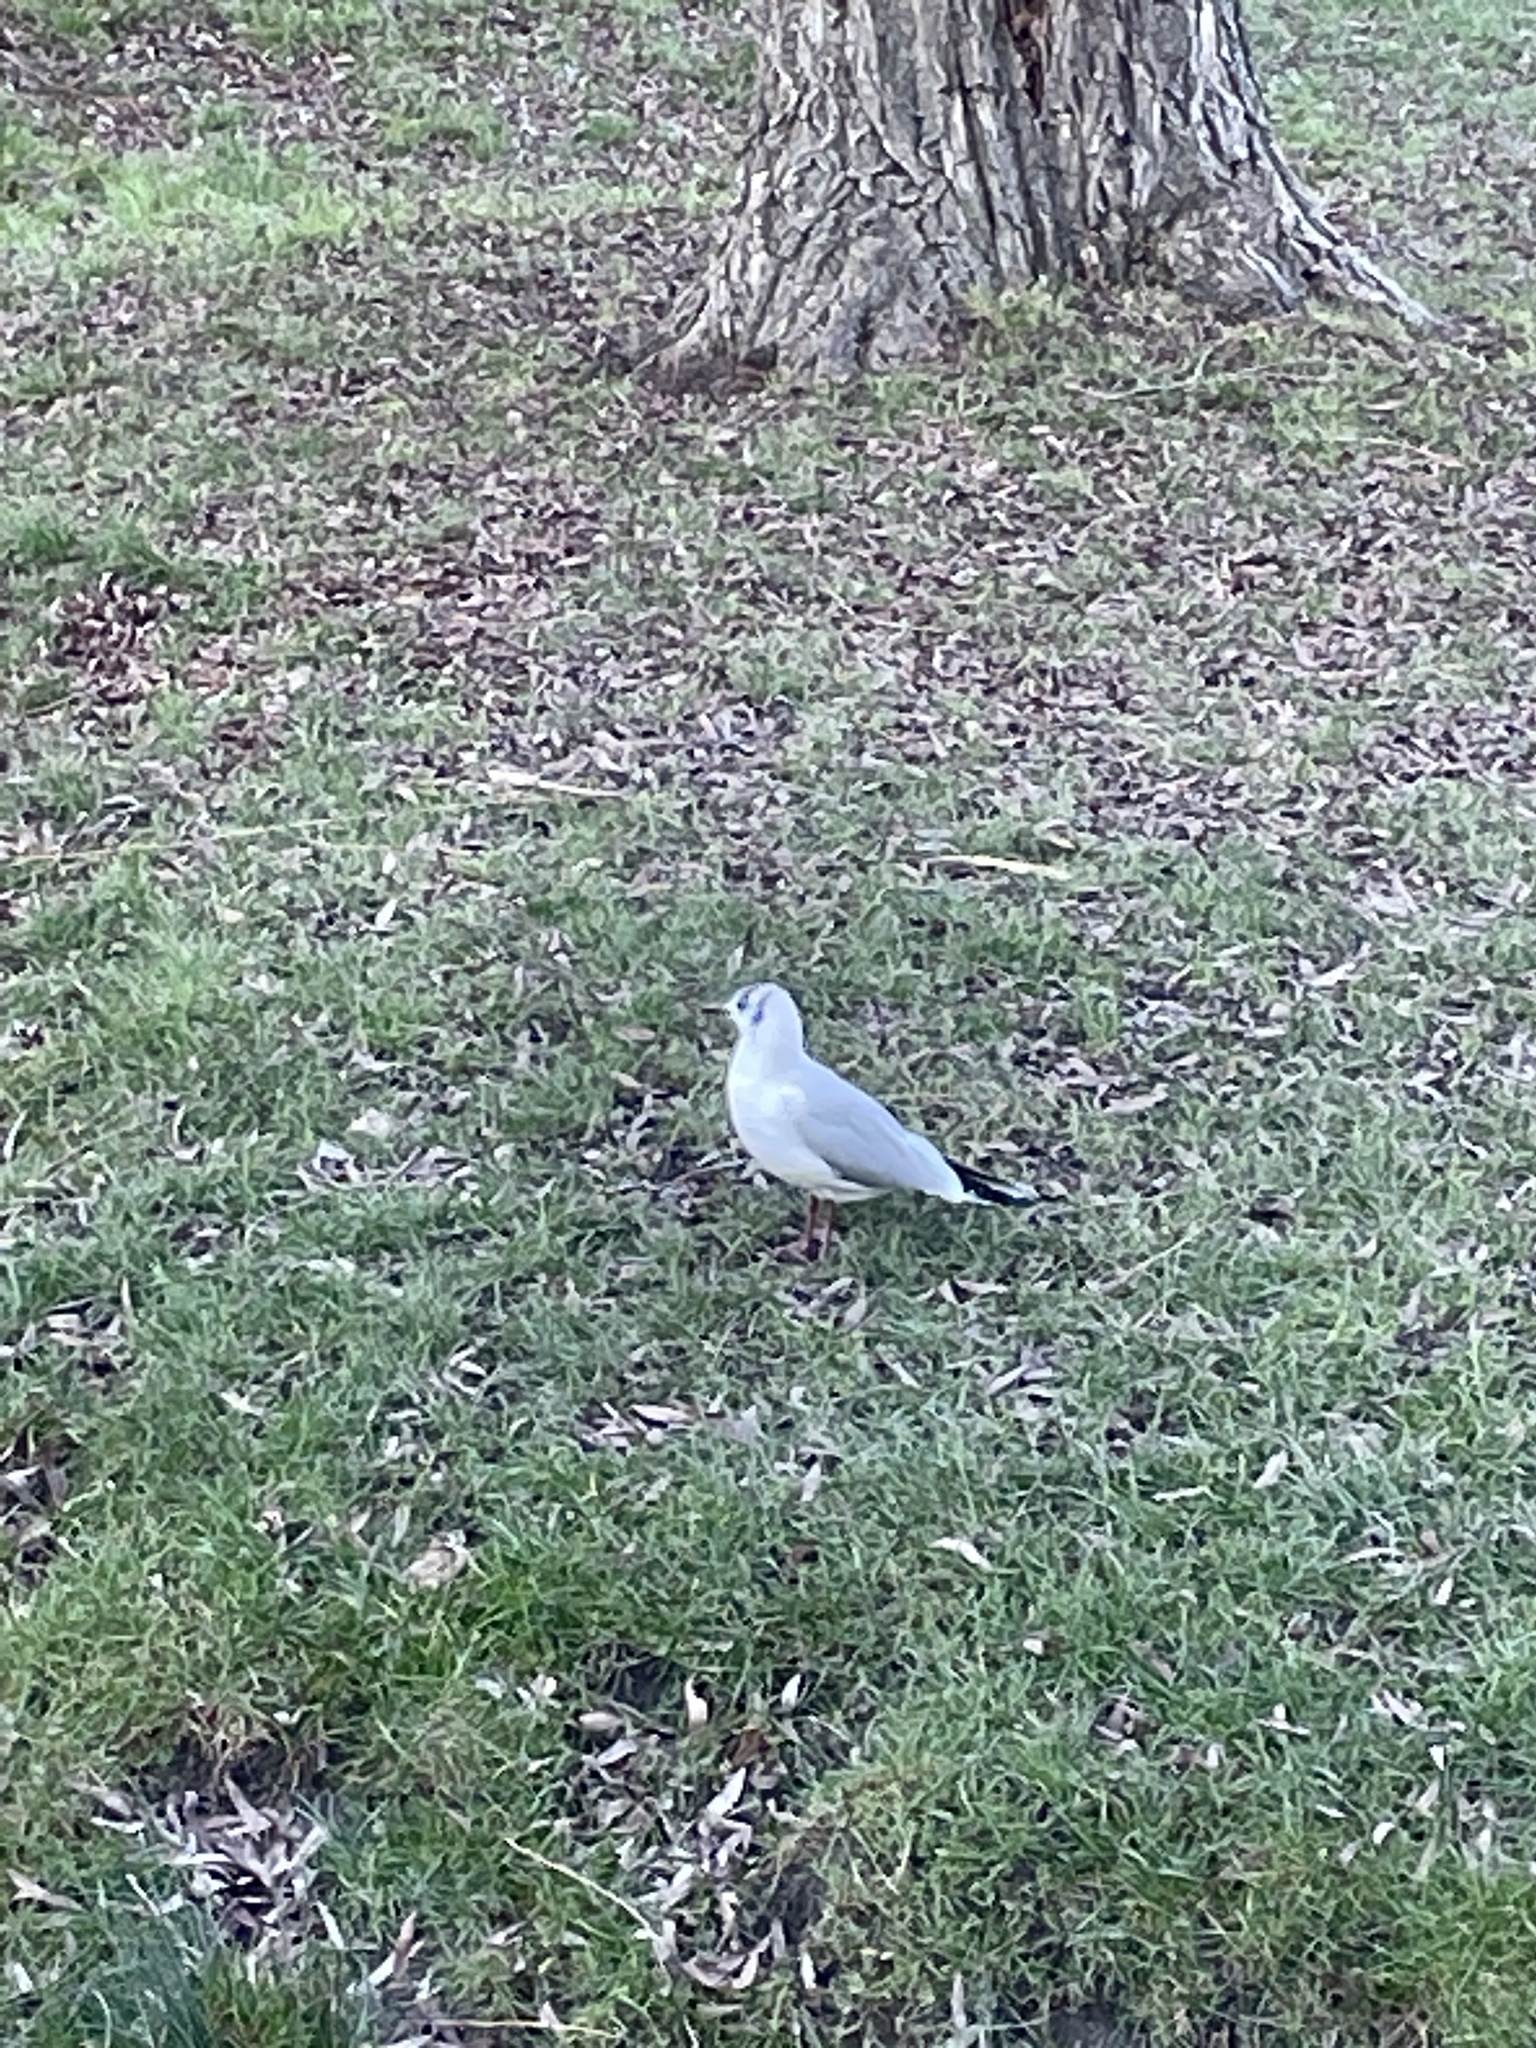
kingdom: Animalia
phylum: Chordata
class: Aves
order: Charadriiformes
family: Laridae
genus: Chroicocephalus
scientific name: Chroicocephalus ridibundus
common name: Black-headed gull
